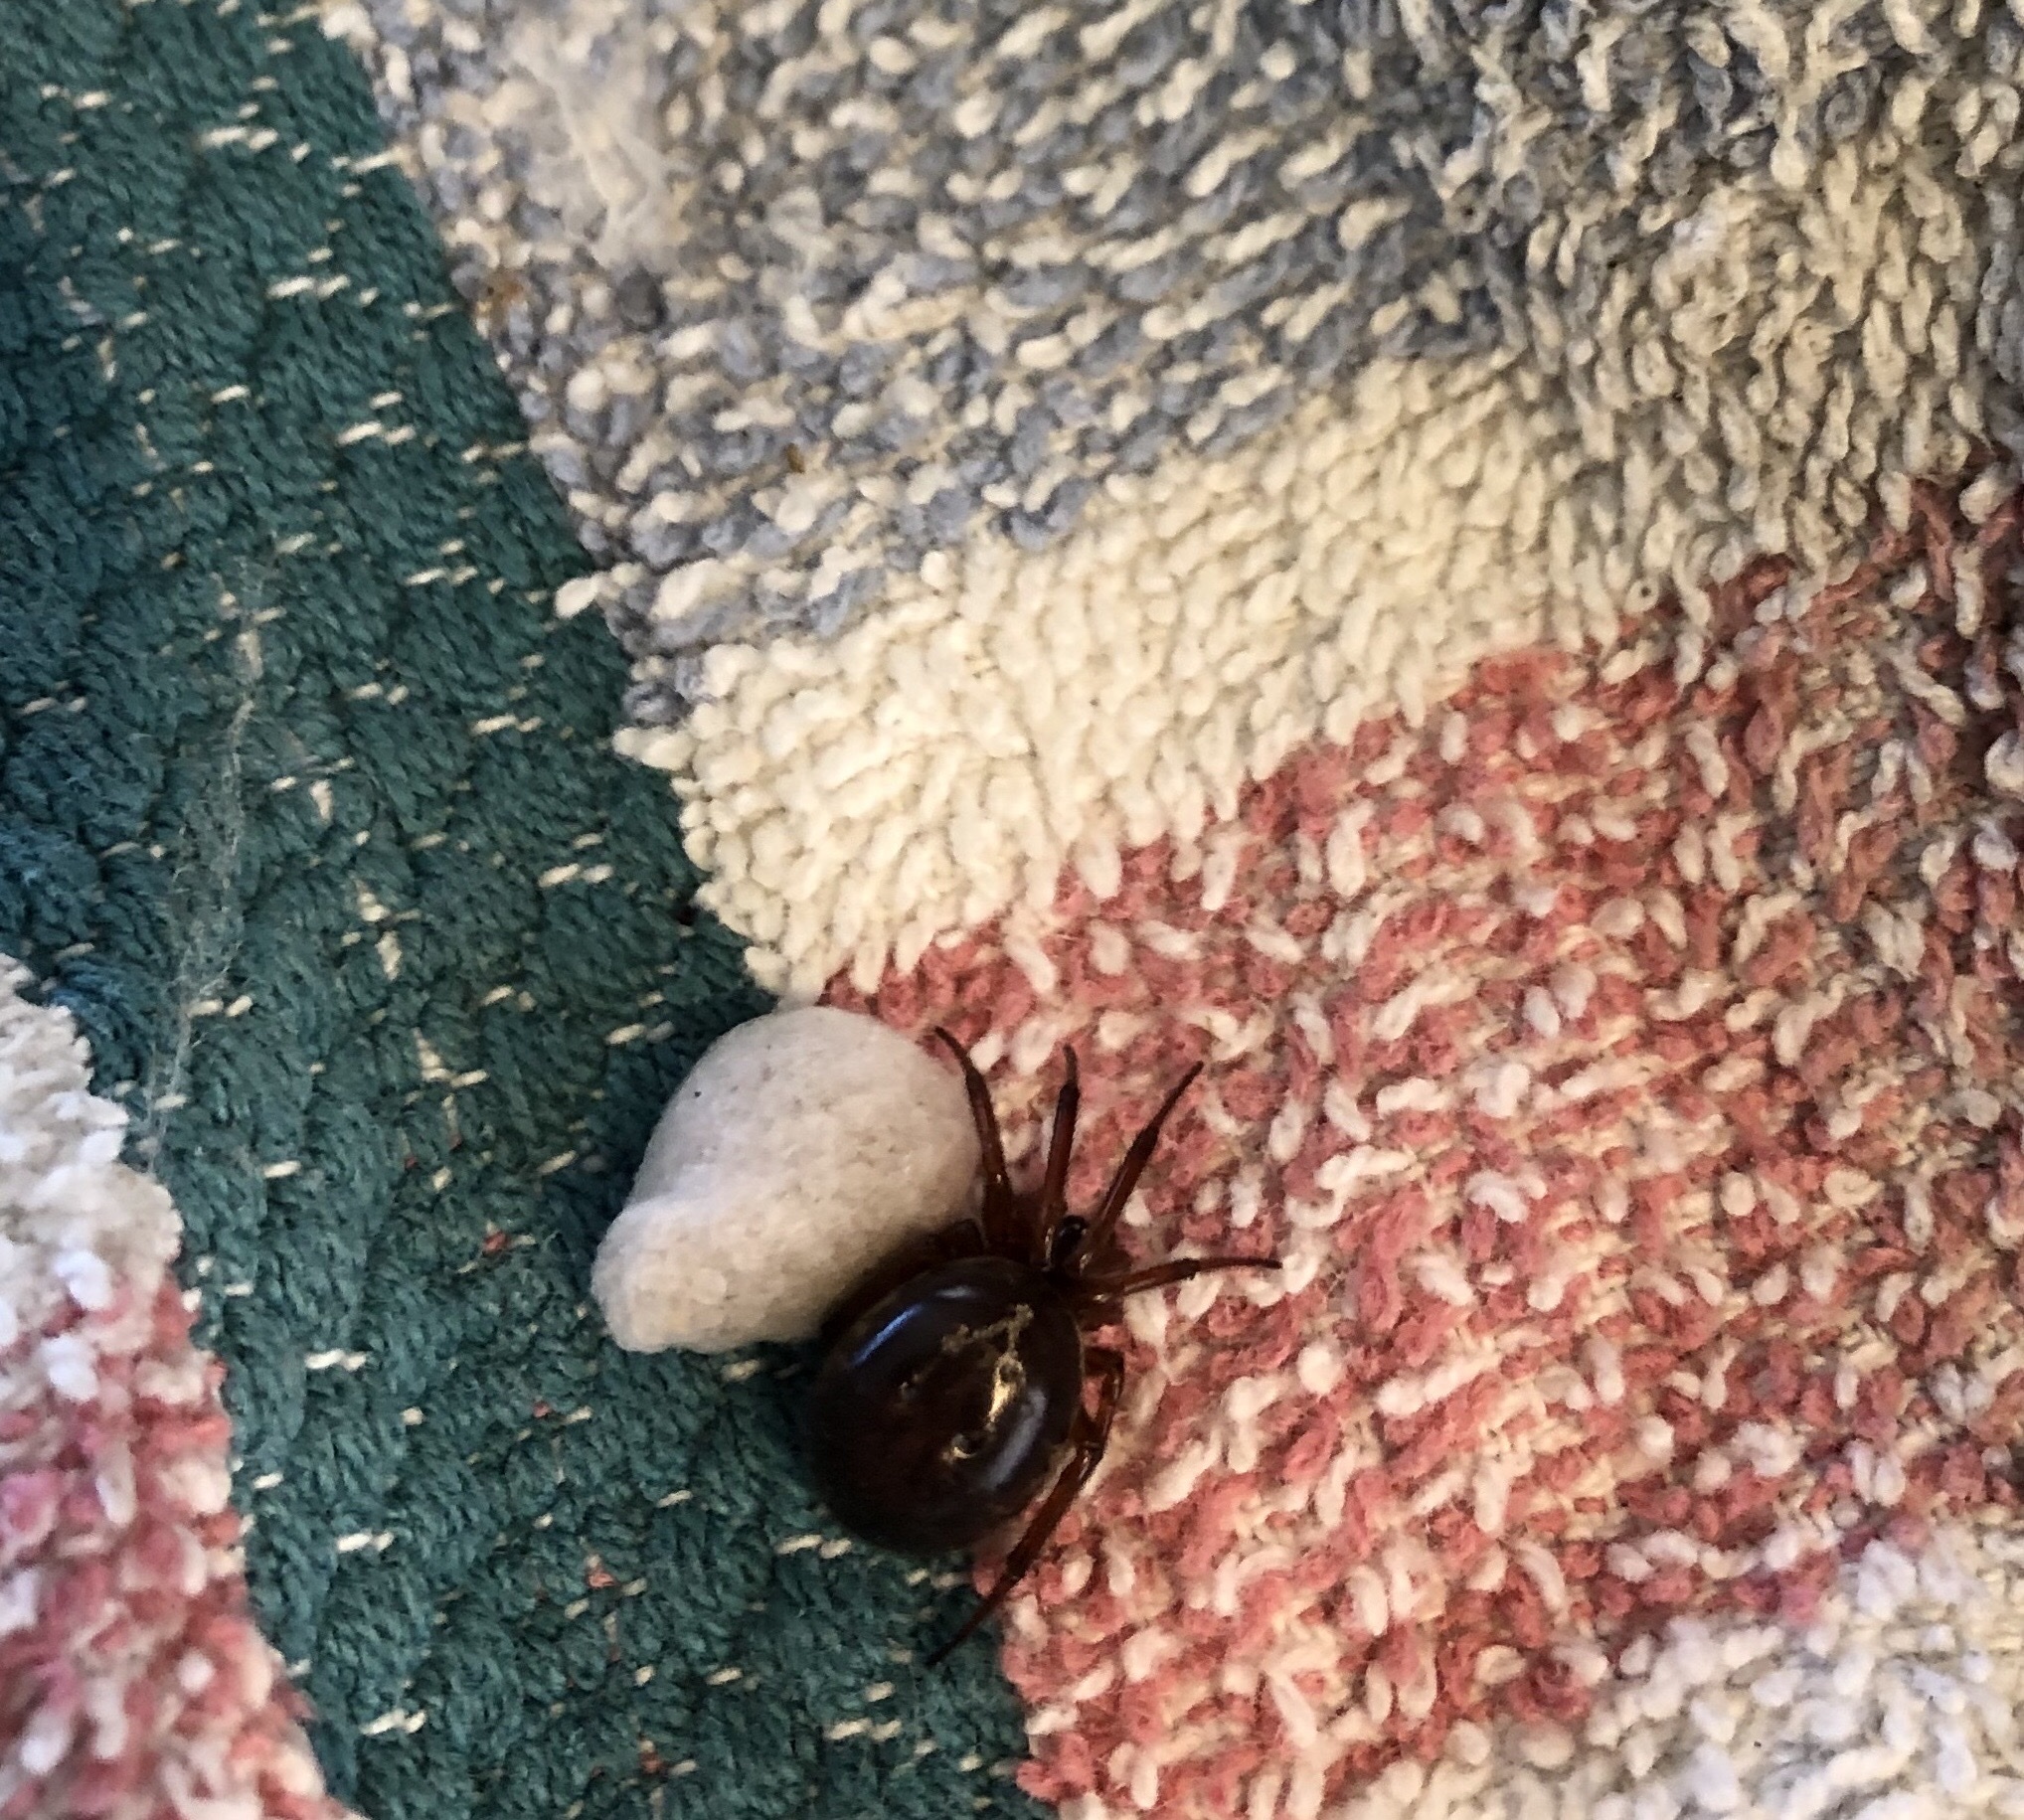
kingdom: Animalia
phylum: Arthropoda
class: Arachnida
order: Araneae
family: Theridiidae
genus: Steatoda
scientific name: Steatoda nobilis
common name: Cobweb weaver
